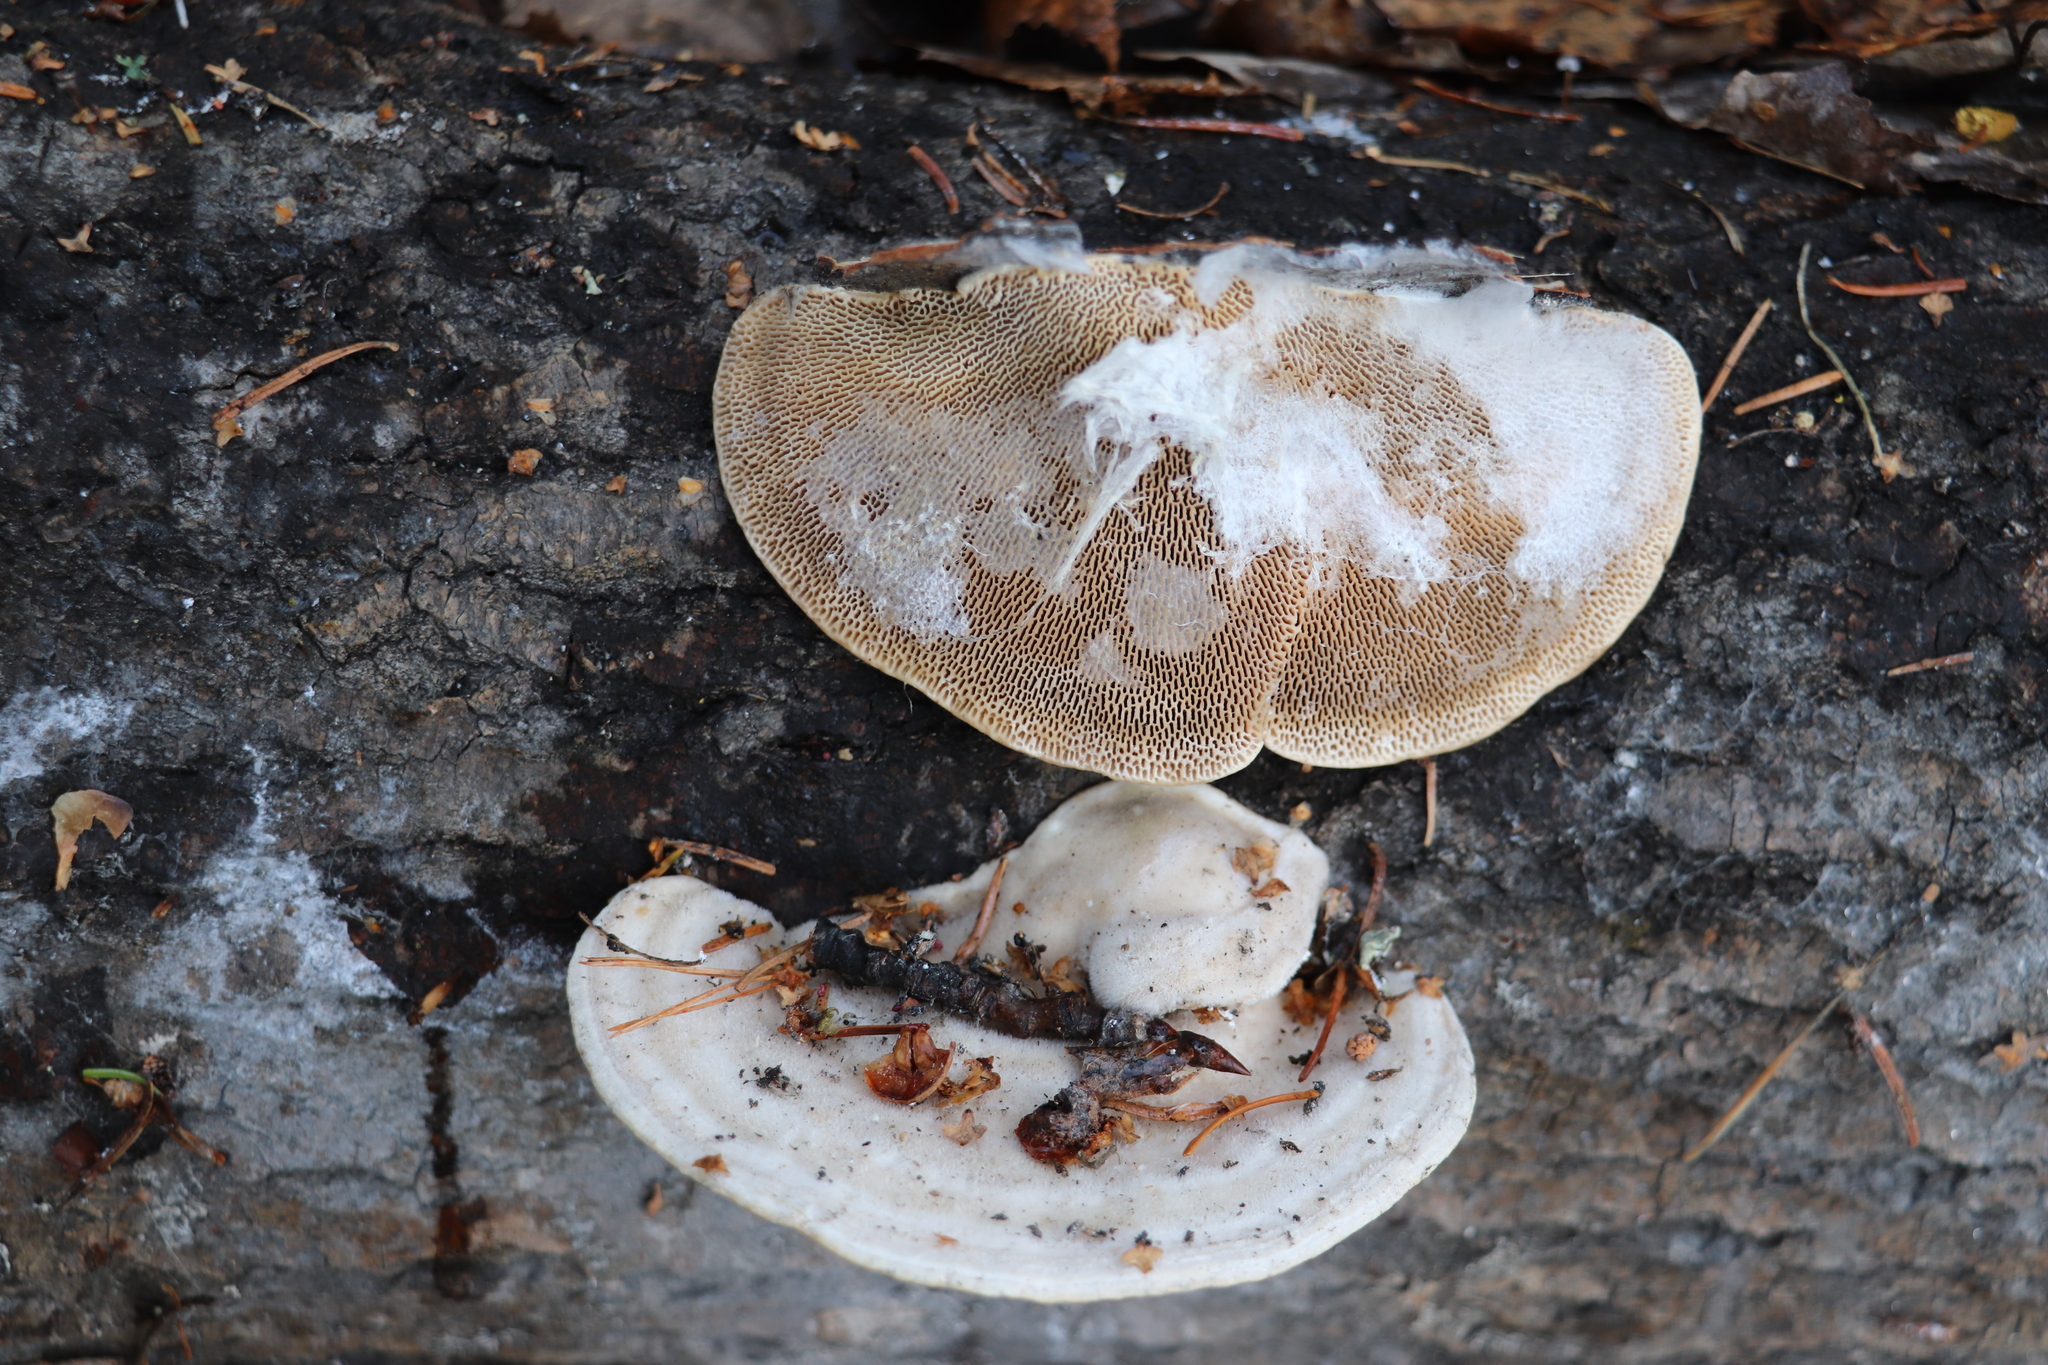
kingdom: Fungi
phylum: Basidiomycota
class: Agaricomycetes
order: Polyporales
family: Polyporaceae
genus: Trametes
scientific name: Trametes gibbosa
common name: Lumpy bracket
